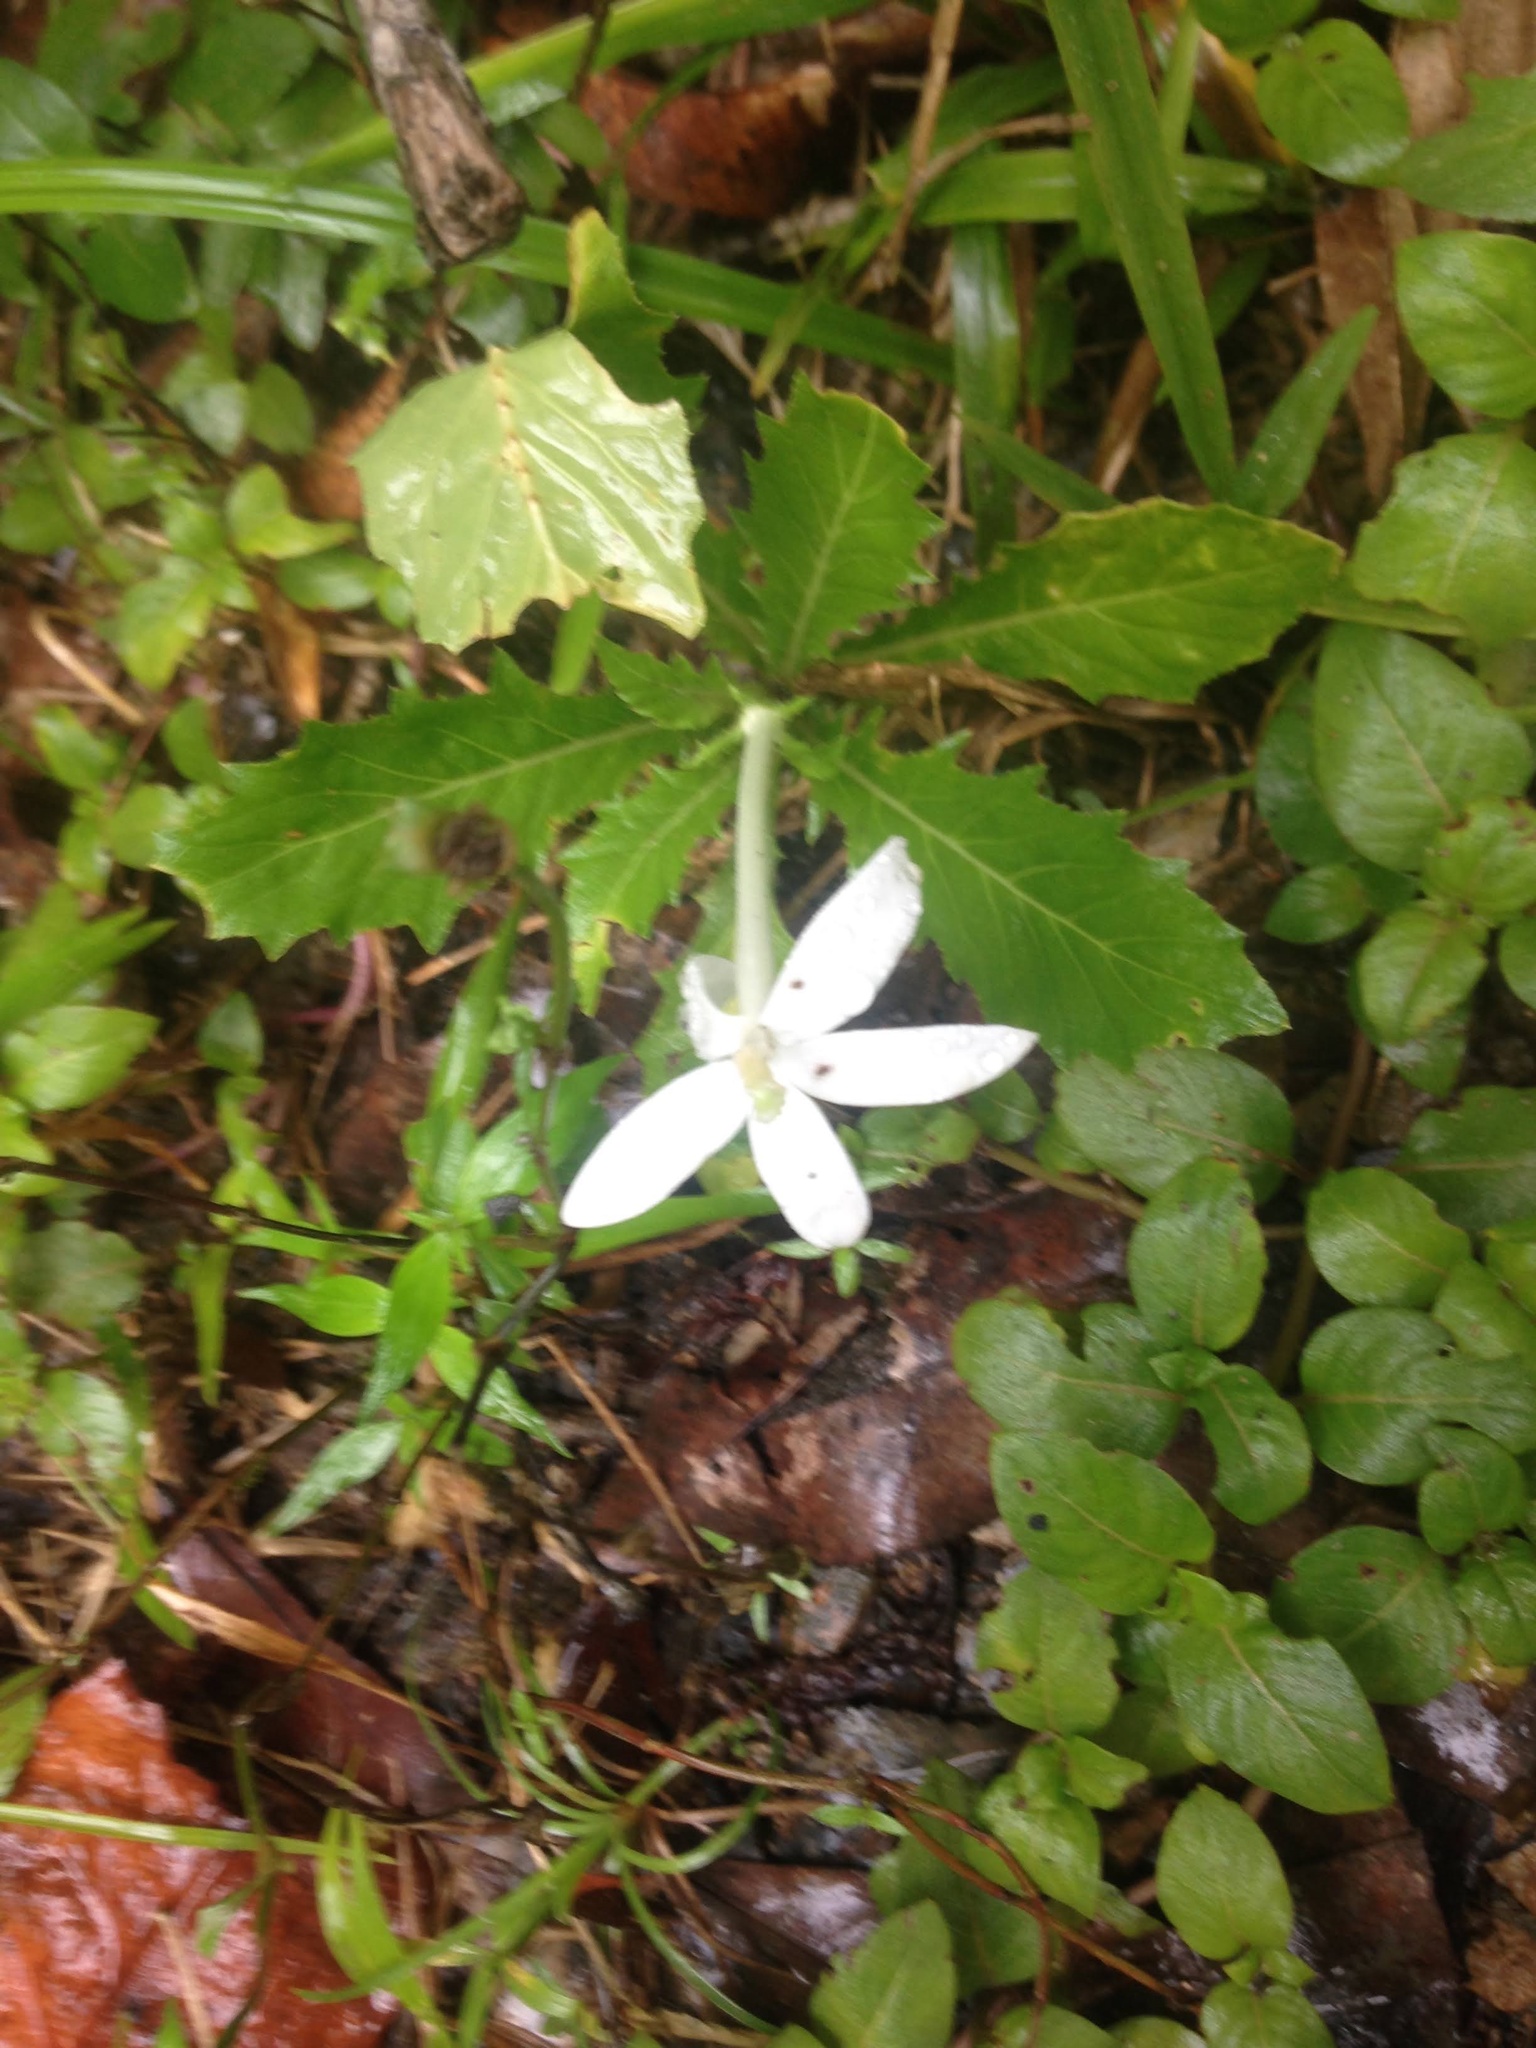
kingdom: Plantae
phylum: Tracheophyta
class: Magnoliopsida
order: Asterales
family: Campanulaceae
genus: Hippobroma
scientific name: Hippobroma longiflora
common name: Madamfate
